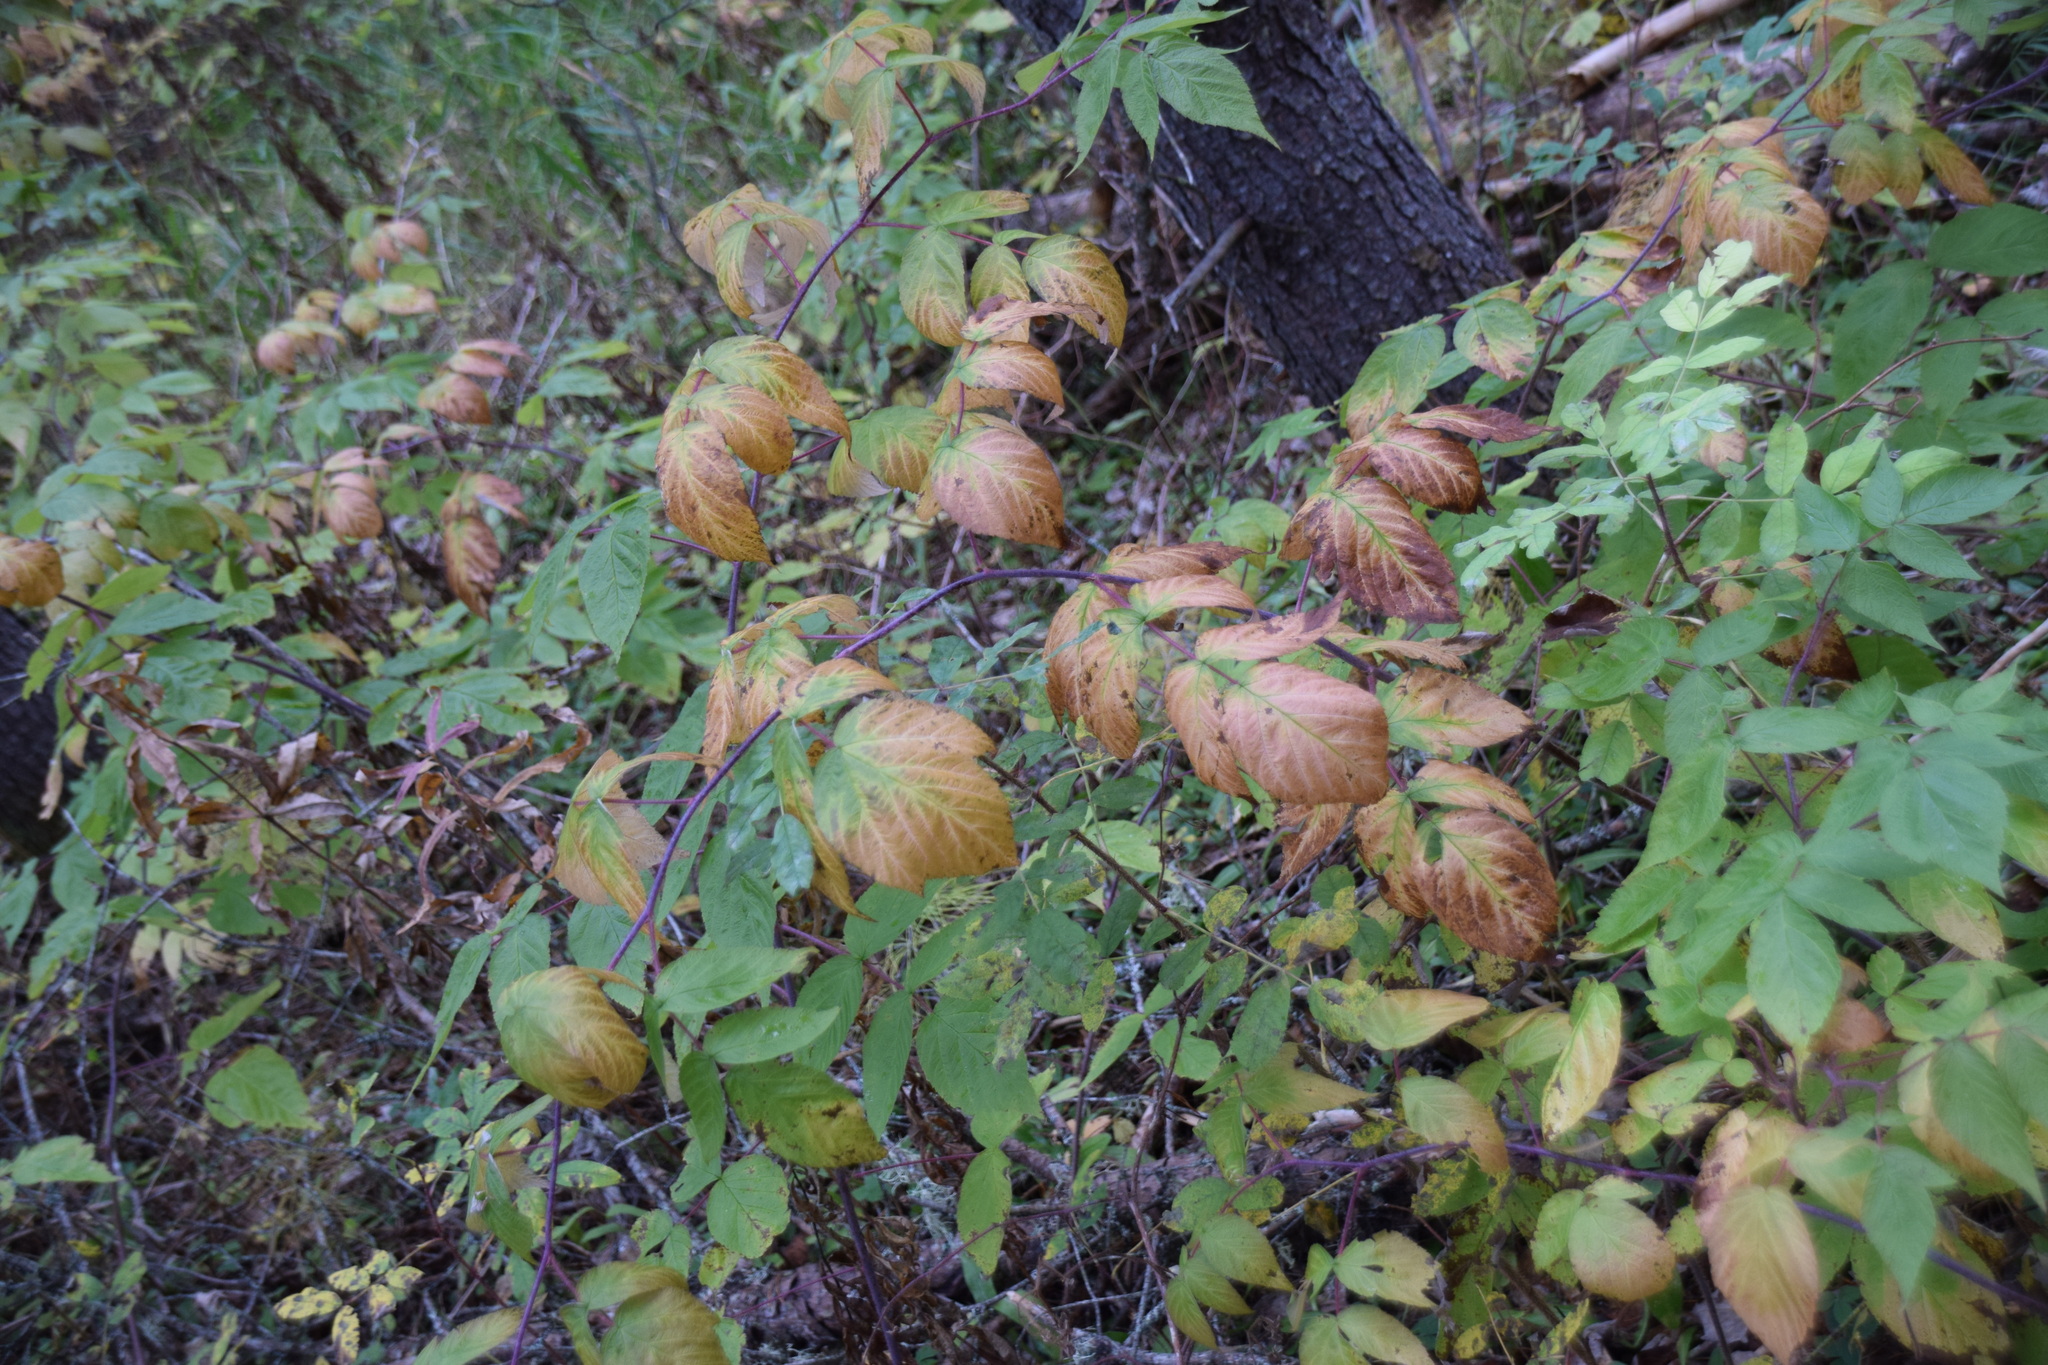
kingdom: Plantae
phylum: Tracheophyta
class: Magnoliopsida
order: Rosales
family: Rosaceae
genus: Rubus
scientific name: Rubus idaeus
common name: Raspberry
